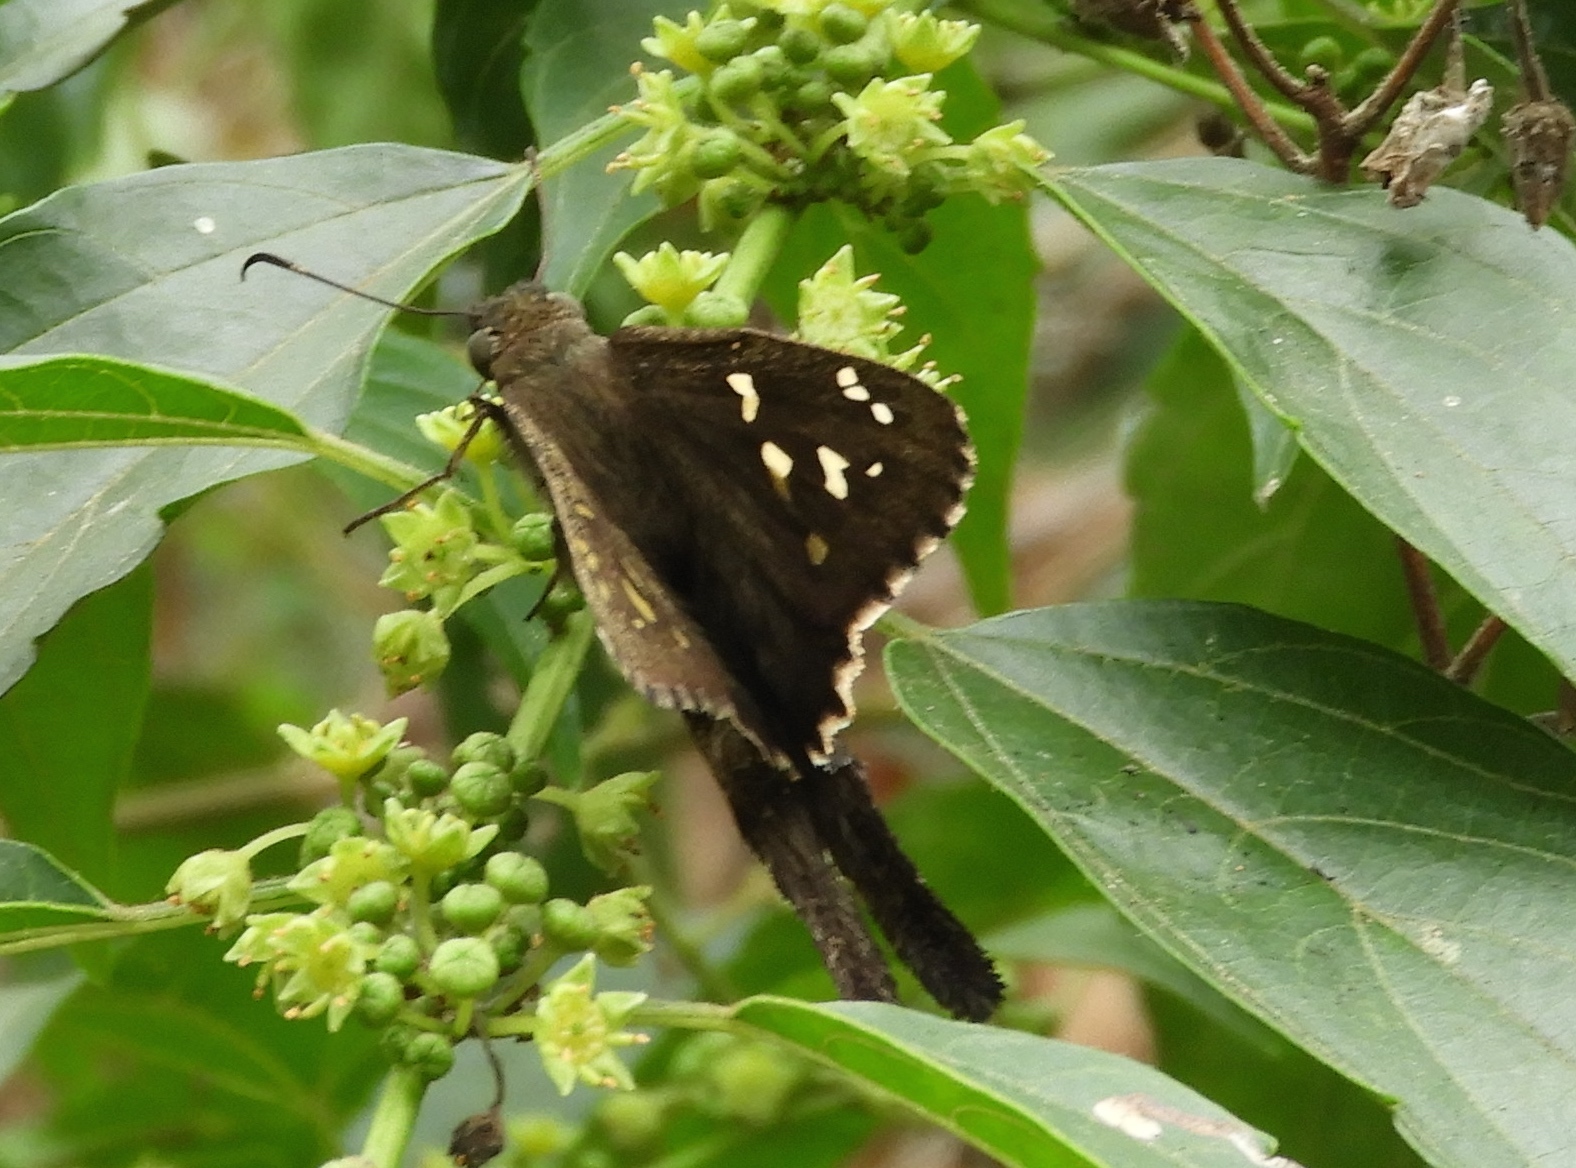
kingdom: Animalia
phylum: Arthropoda
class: Insecta
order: Lepidoptera
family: Hesperiidae
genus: Thorybes
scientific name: Thorybes
